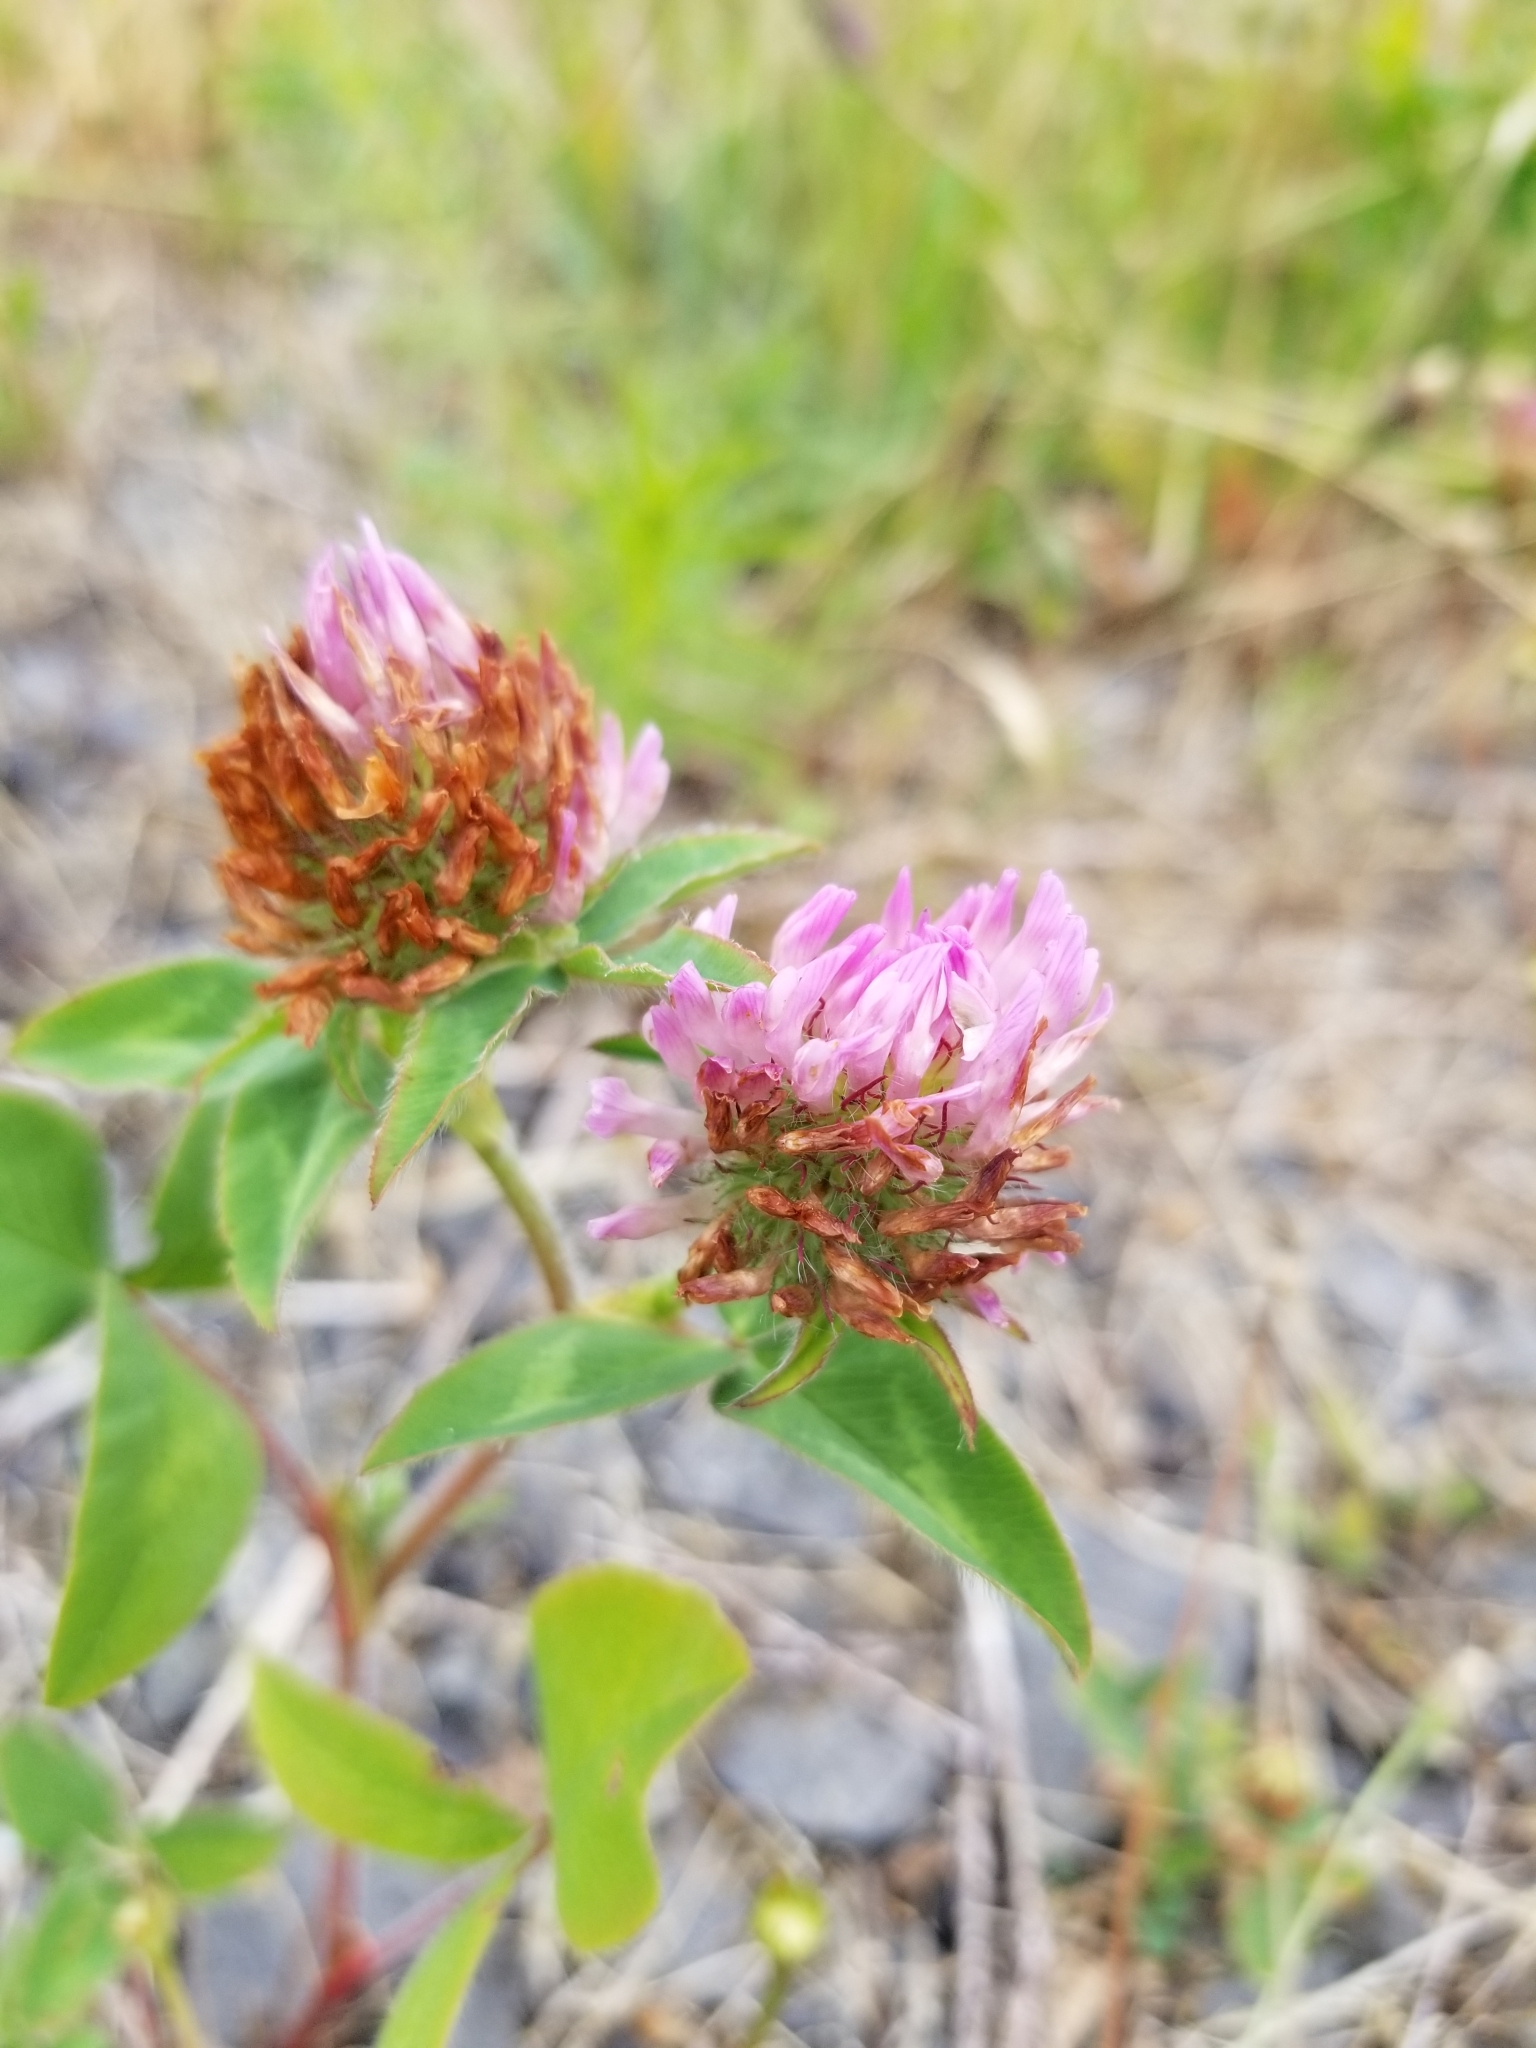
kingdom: Plantae
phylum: Tracheophyta
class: Magnoliopsida
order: Fabales
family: Fabaceae
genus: Trifolium
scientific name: Trifolium pratense
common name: Red clover
